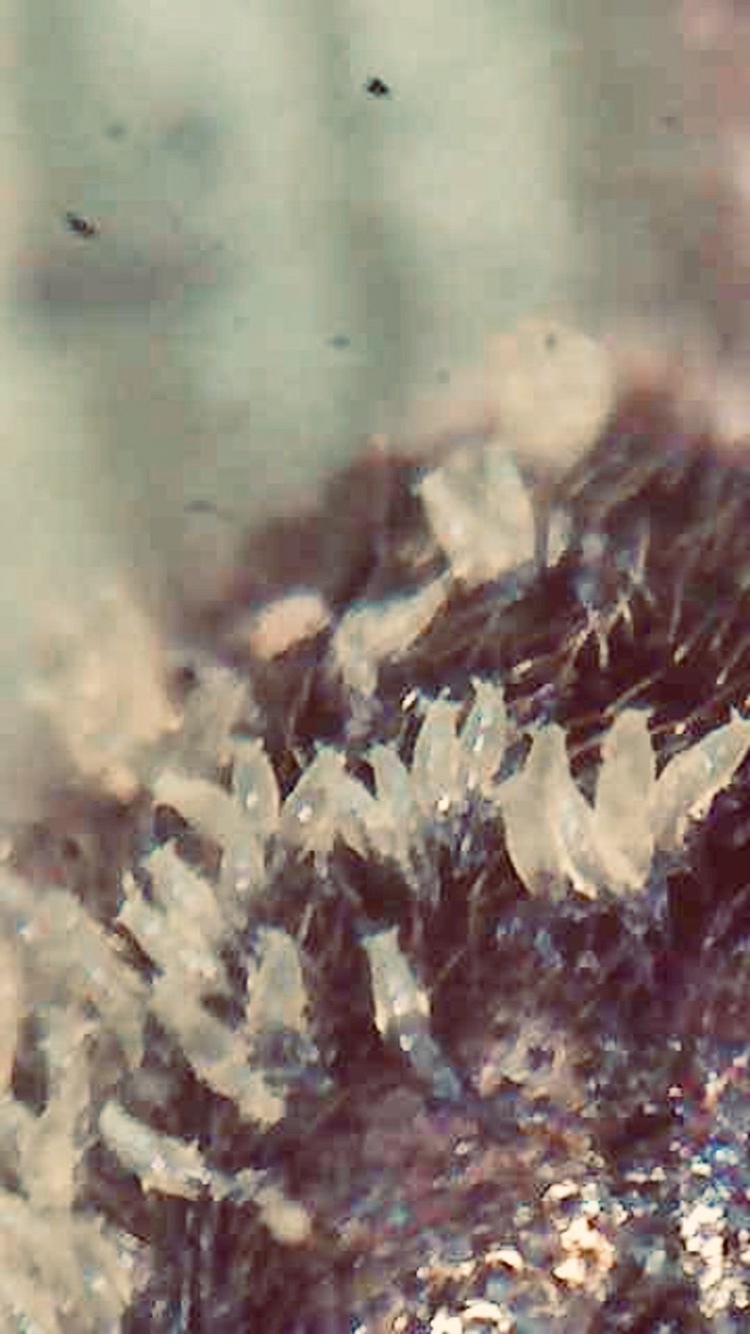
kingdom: Fungi
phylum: Ascomycota
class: Laboulbeniomycetes
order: Laboulbeniales
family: Laboulbeniaceae
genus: Hesperomyces
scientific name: Hesperomyces coccinelloides
